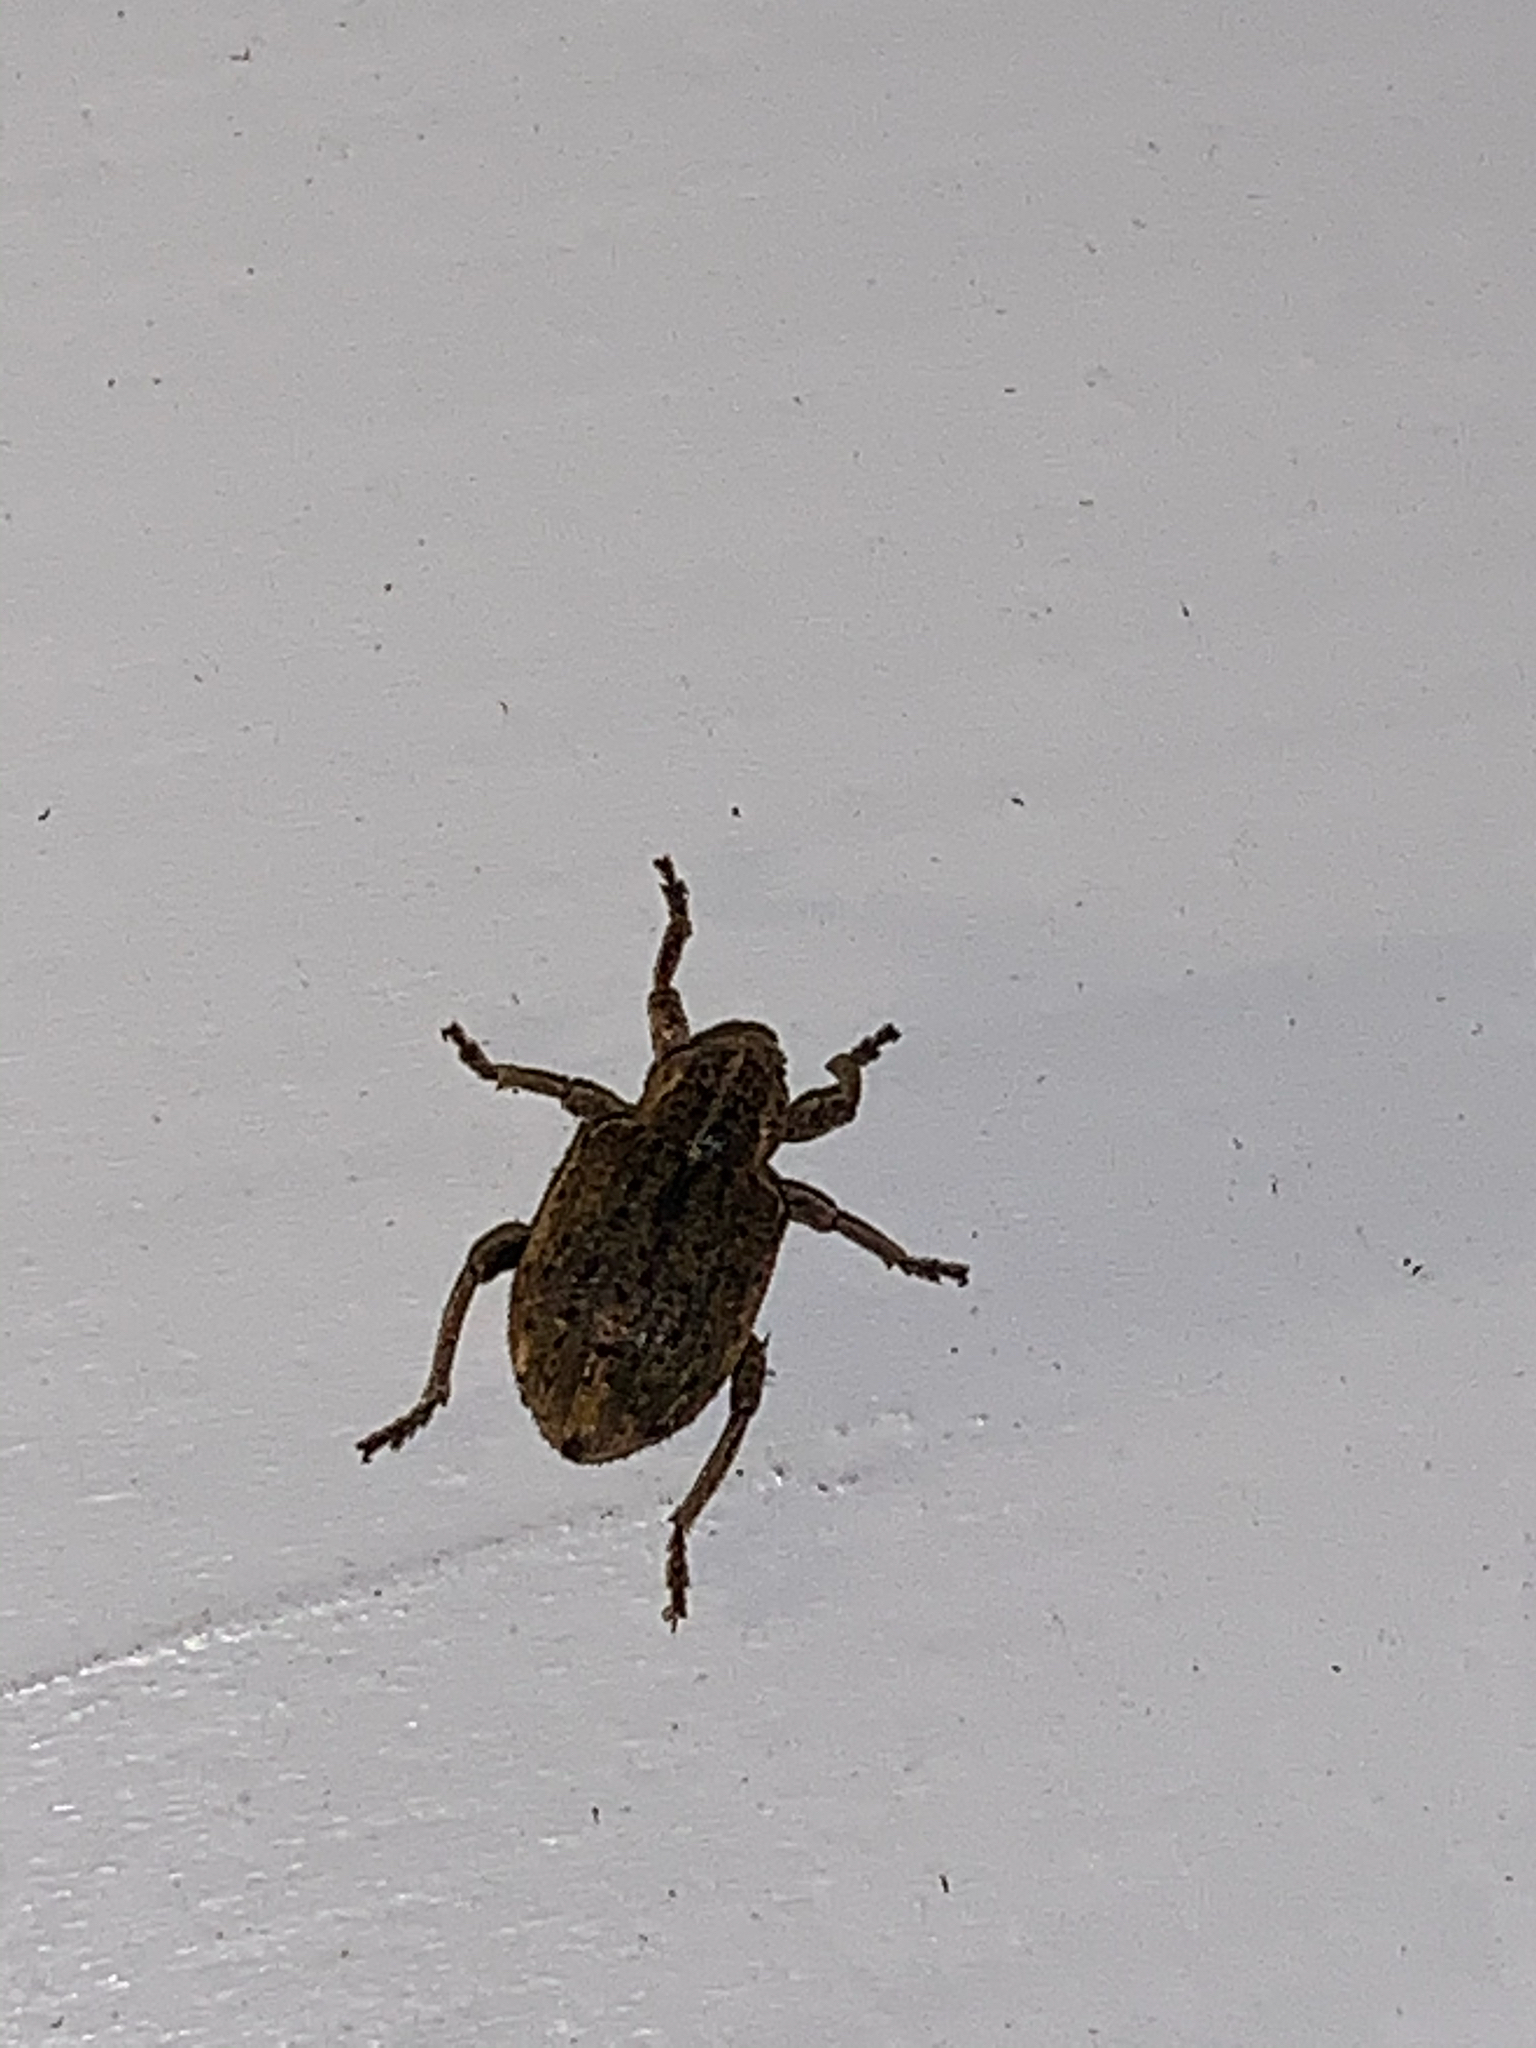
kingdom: Animalia
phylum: Arthropoda
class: Insecta
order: Coleoptera
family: Curculionidae
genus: Brachypera
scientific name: Brachypera zoilus
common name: Clover leaf weevil
